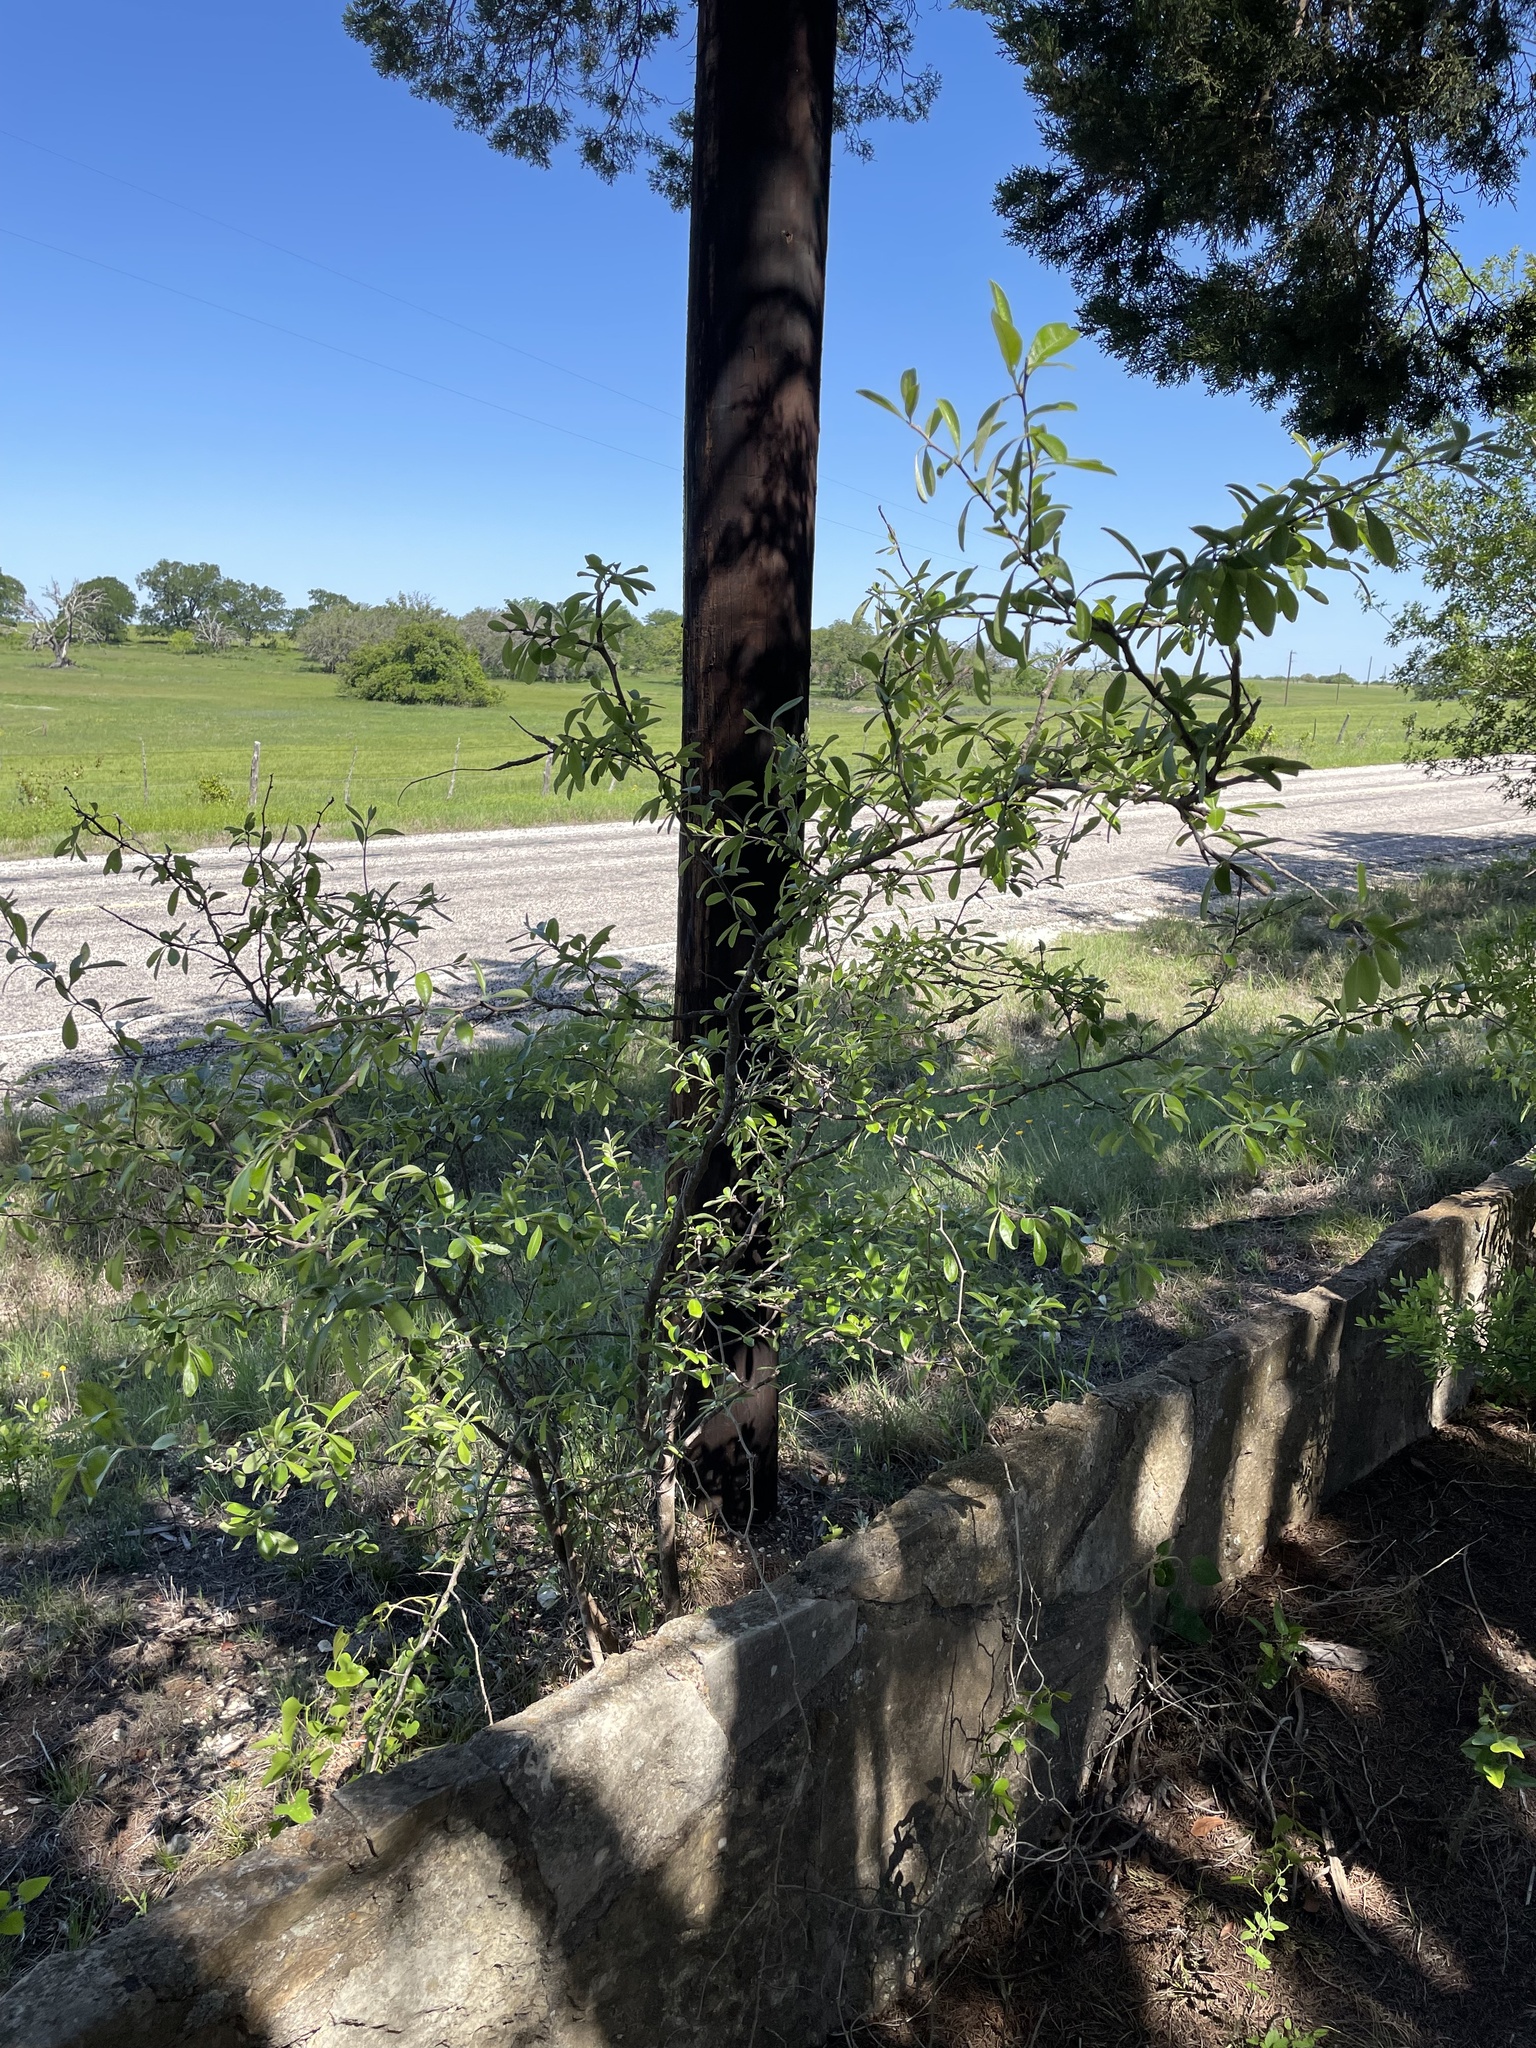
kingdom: Plantae
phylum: Tracheophyta
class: Magnoliopsida
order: Ericales
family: Sapotaceae
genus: Sideroxylon
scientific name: Sideroxylon lanuginosum
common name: Chittamwood
